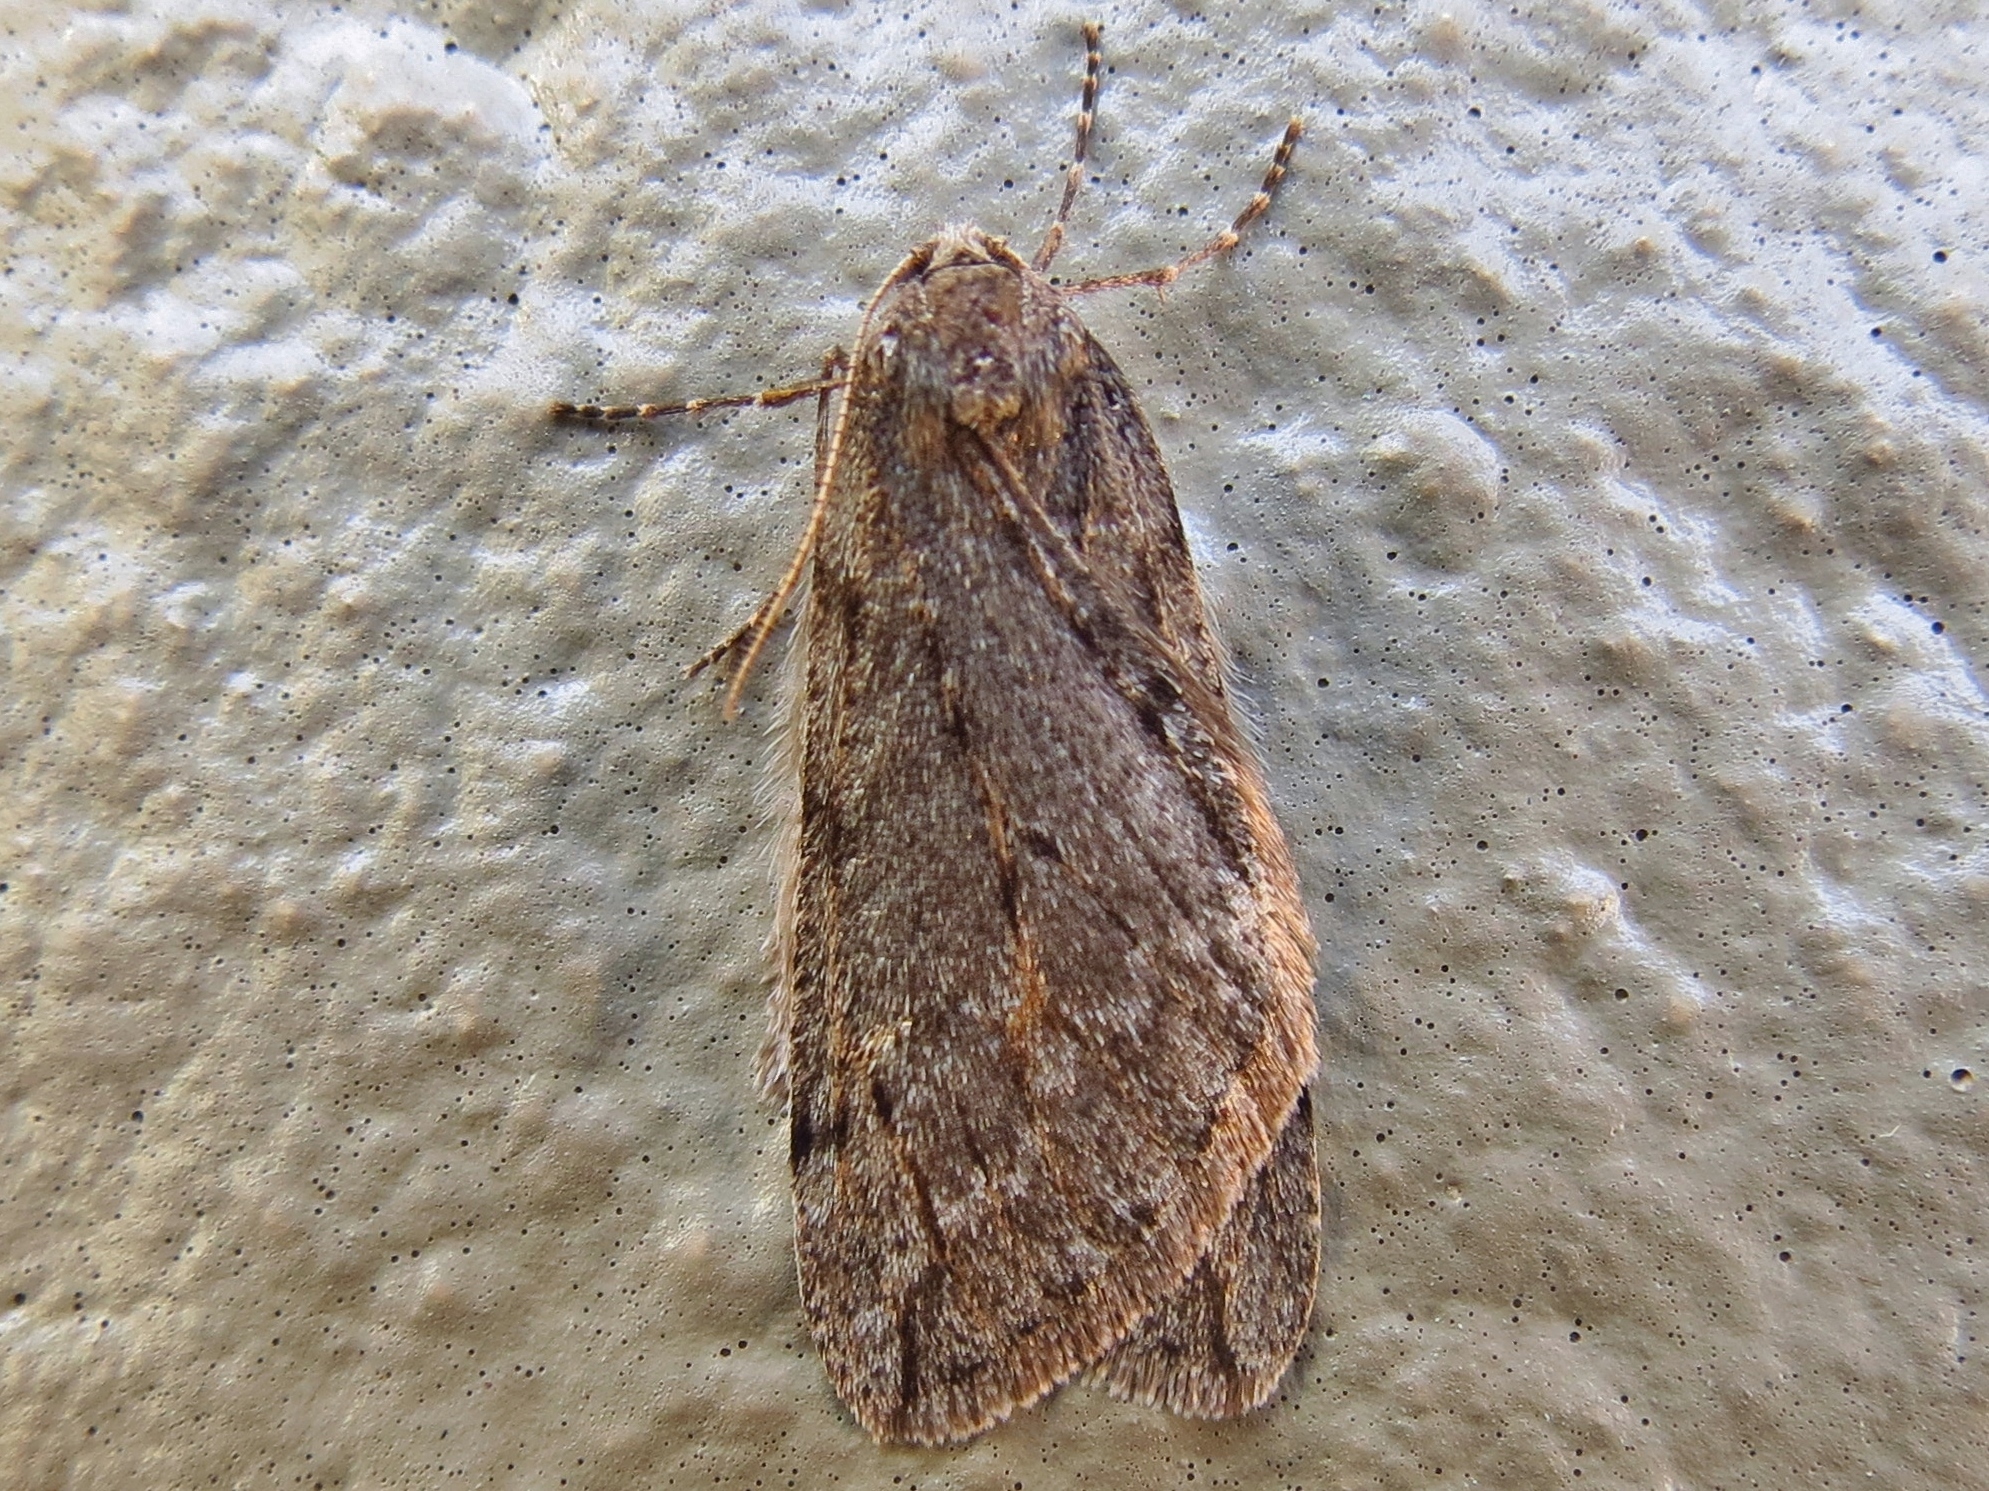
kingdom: Animalia
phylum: Arthropoda
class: Insecta
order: Lepidoptera
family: Geometridae
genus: Paleacrita
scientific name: Paleacrita vernata
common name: Spring cankerworm
